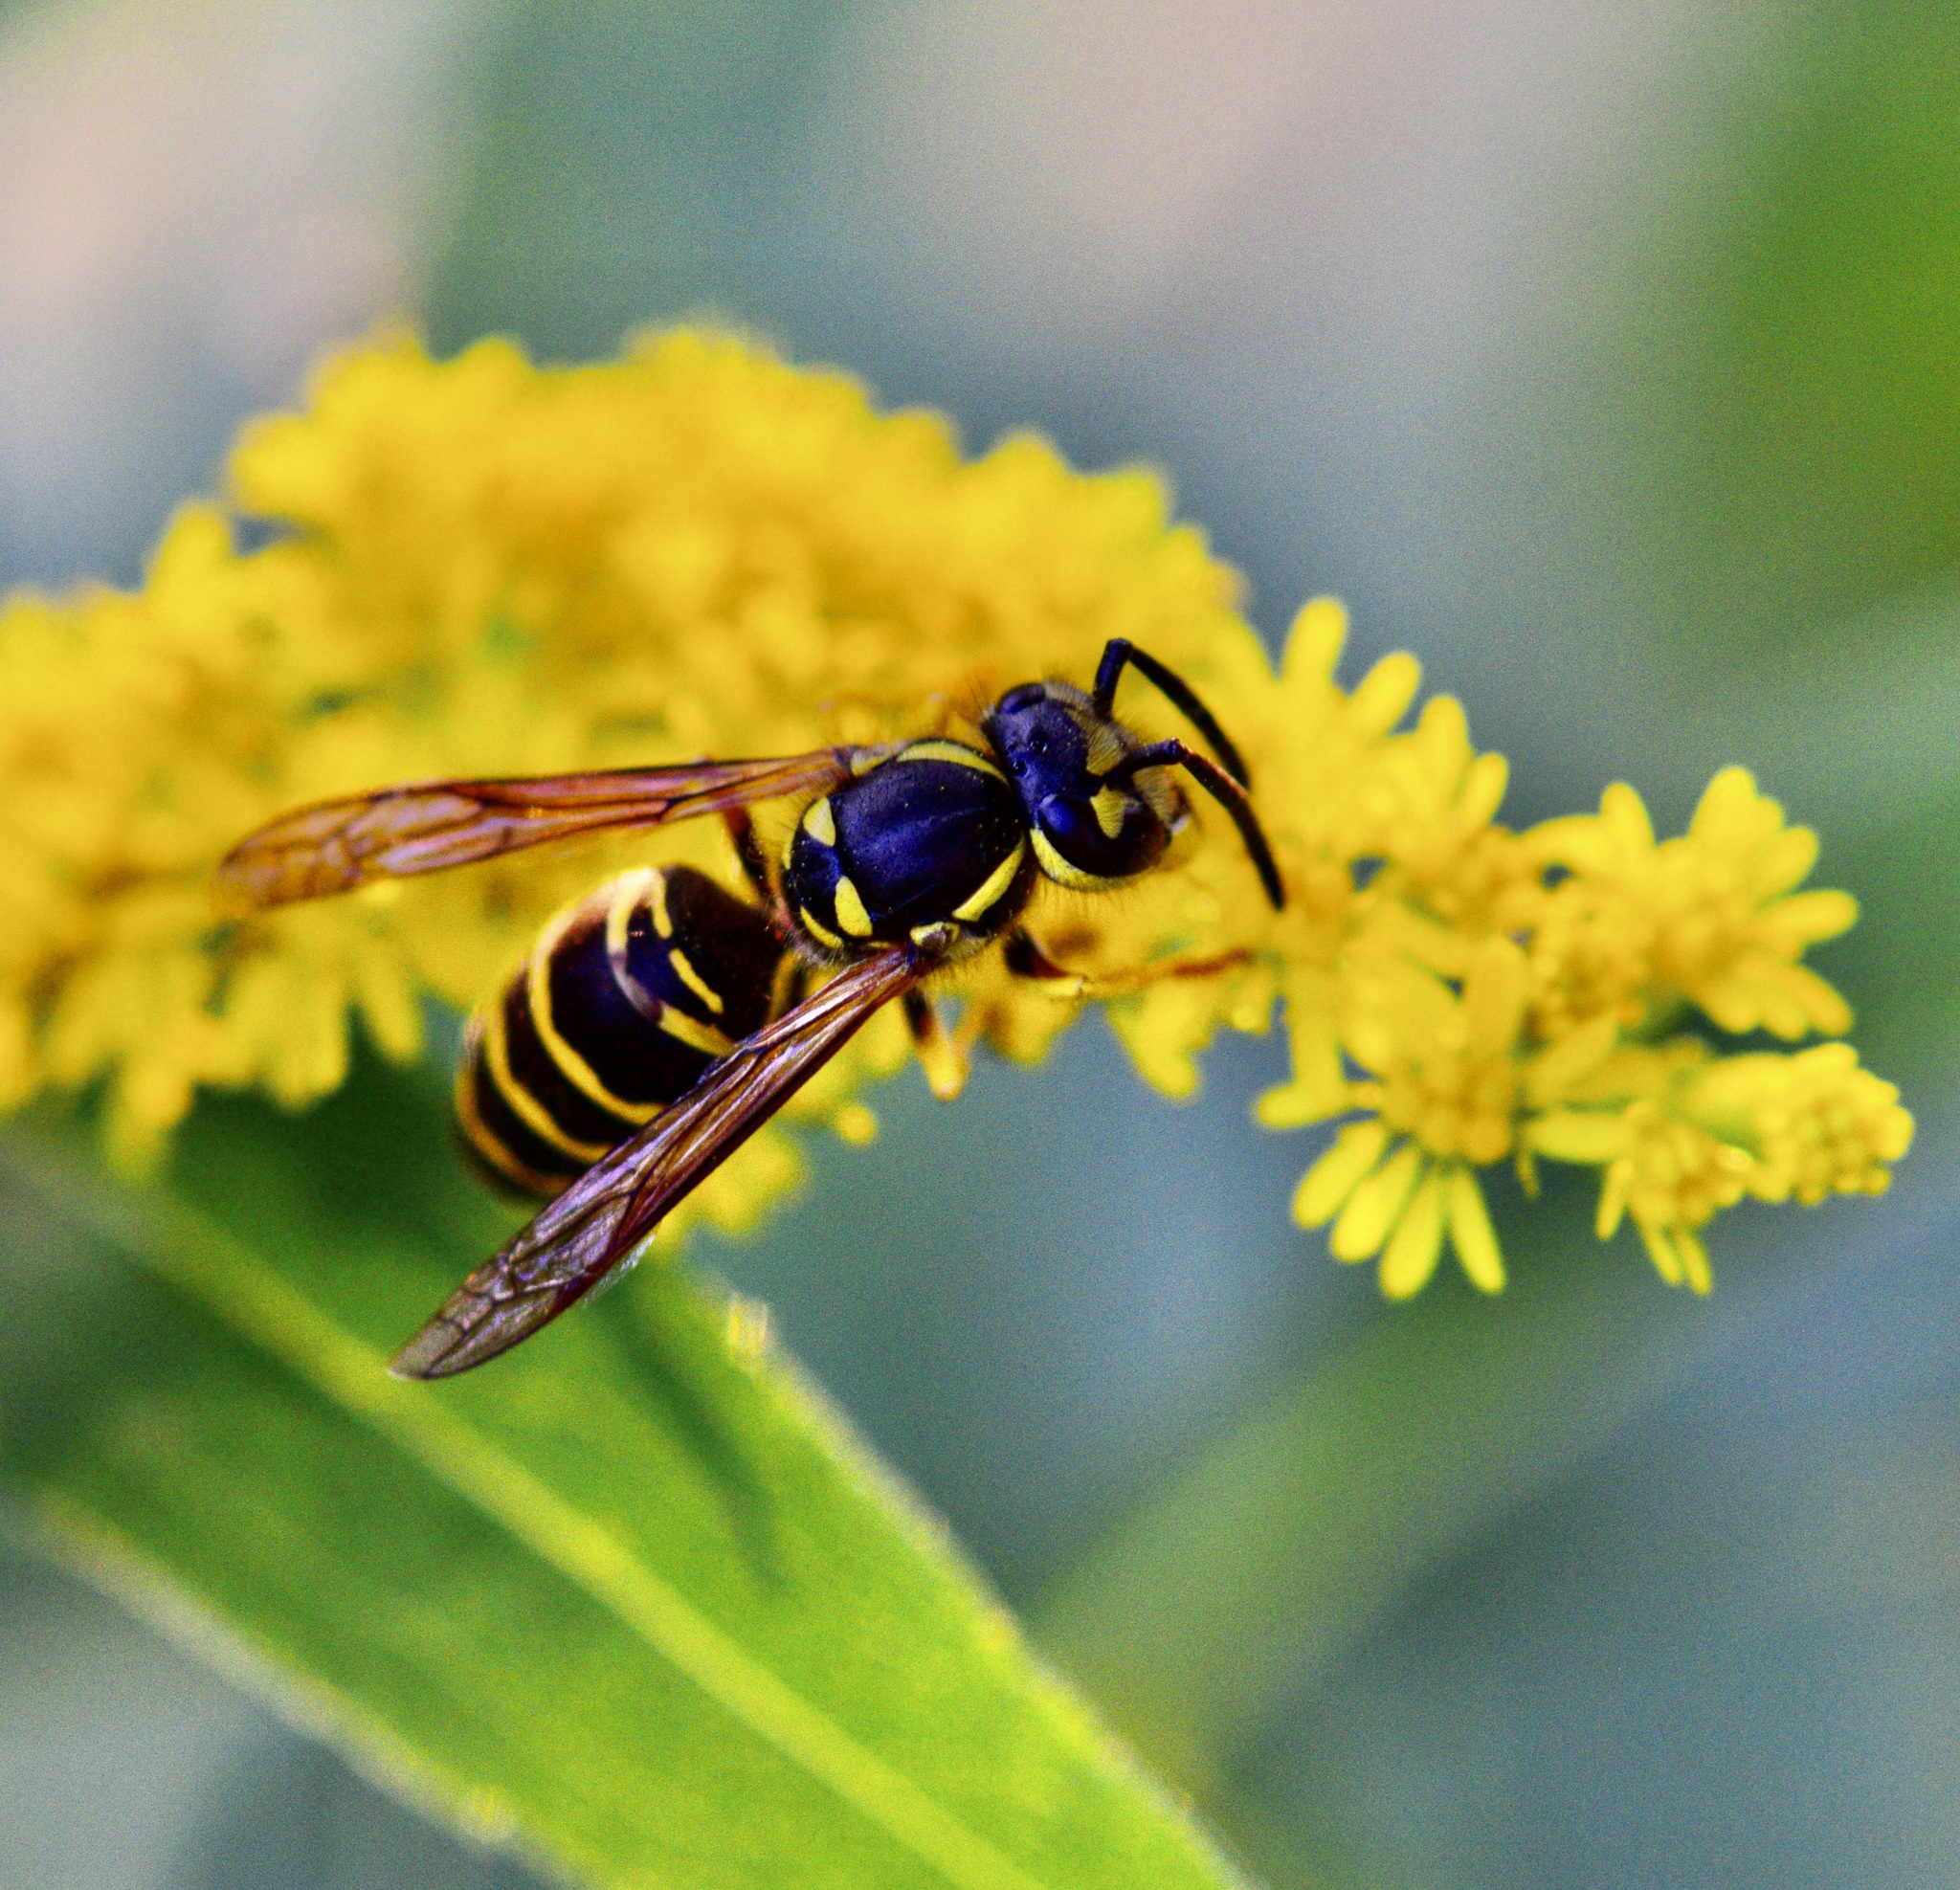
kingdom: Animalia
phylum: Arthropoda
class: Insecta
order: Hymenoptera
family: Vespidae
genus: Vespula
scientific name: Vespula maculifrons
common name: Eastern yellowjacket
